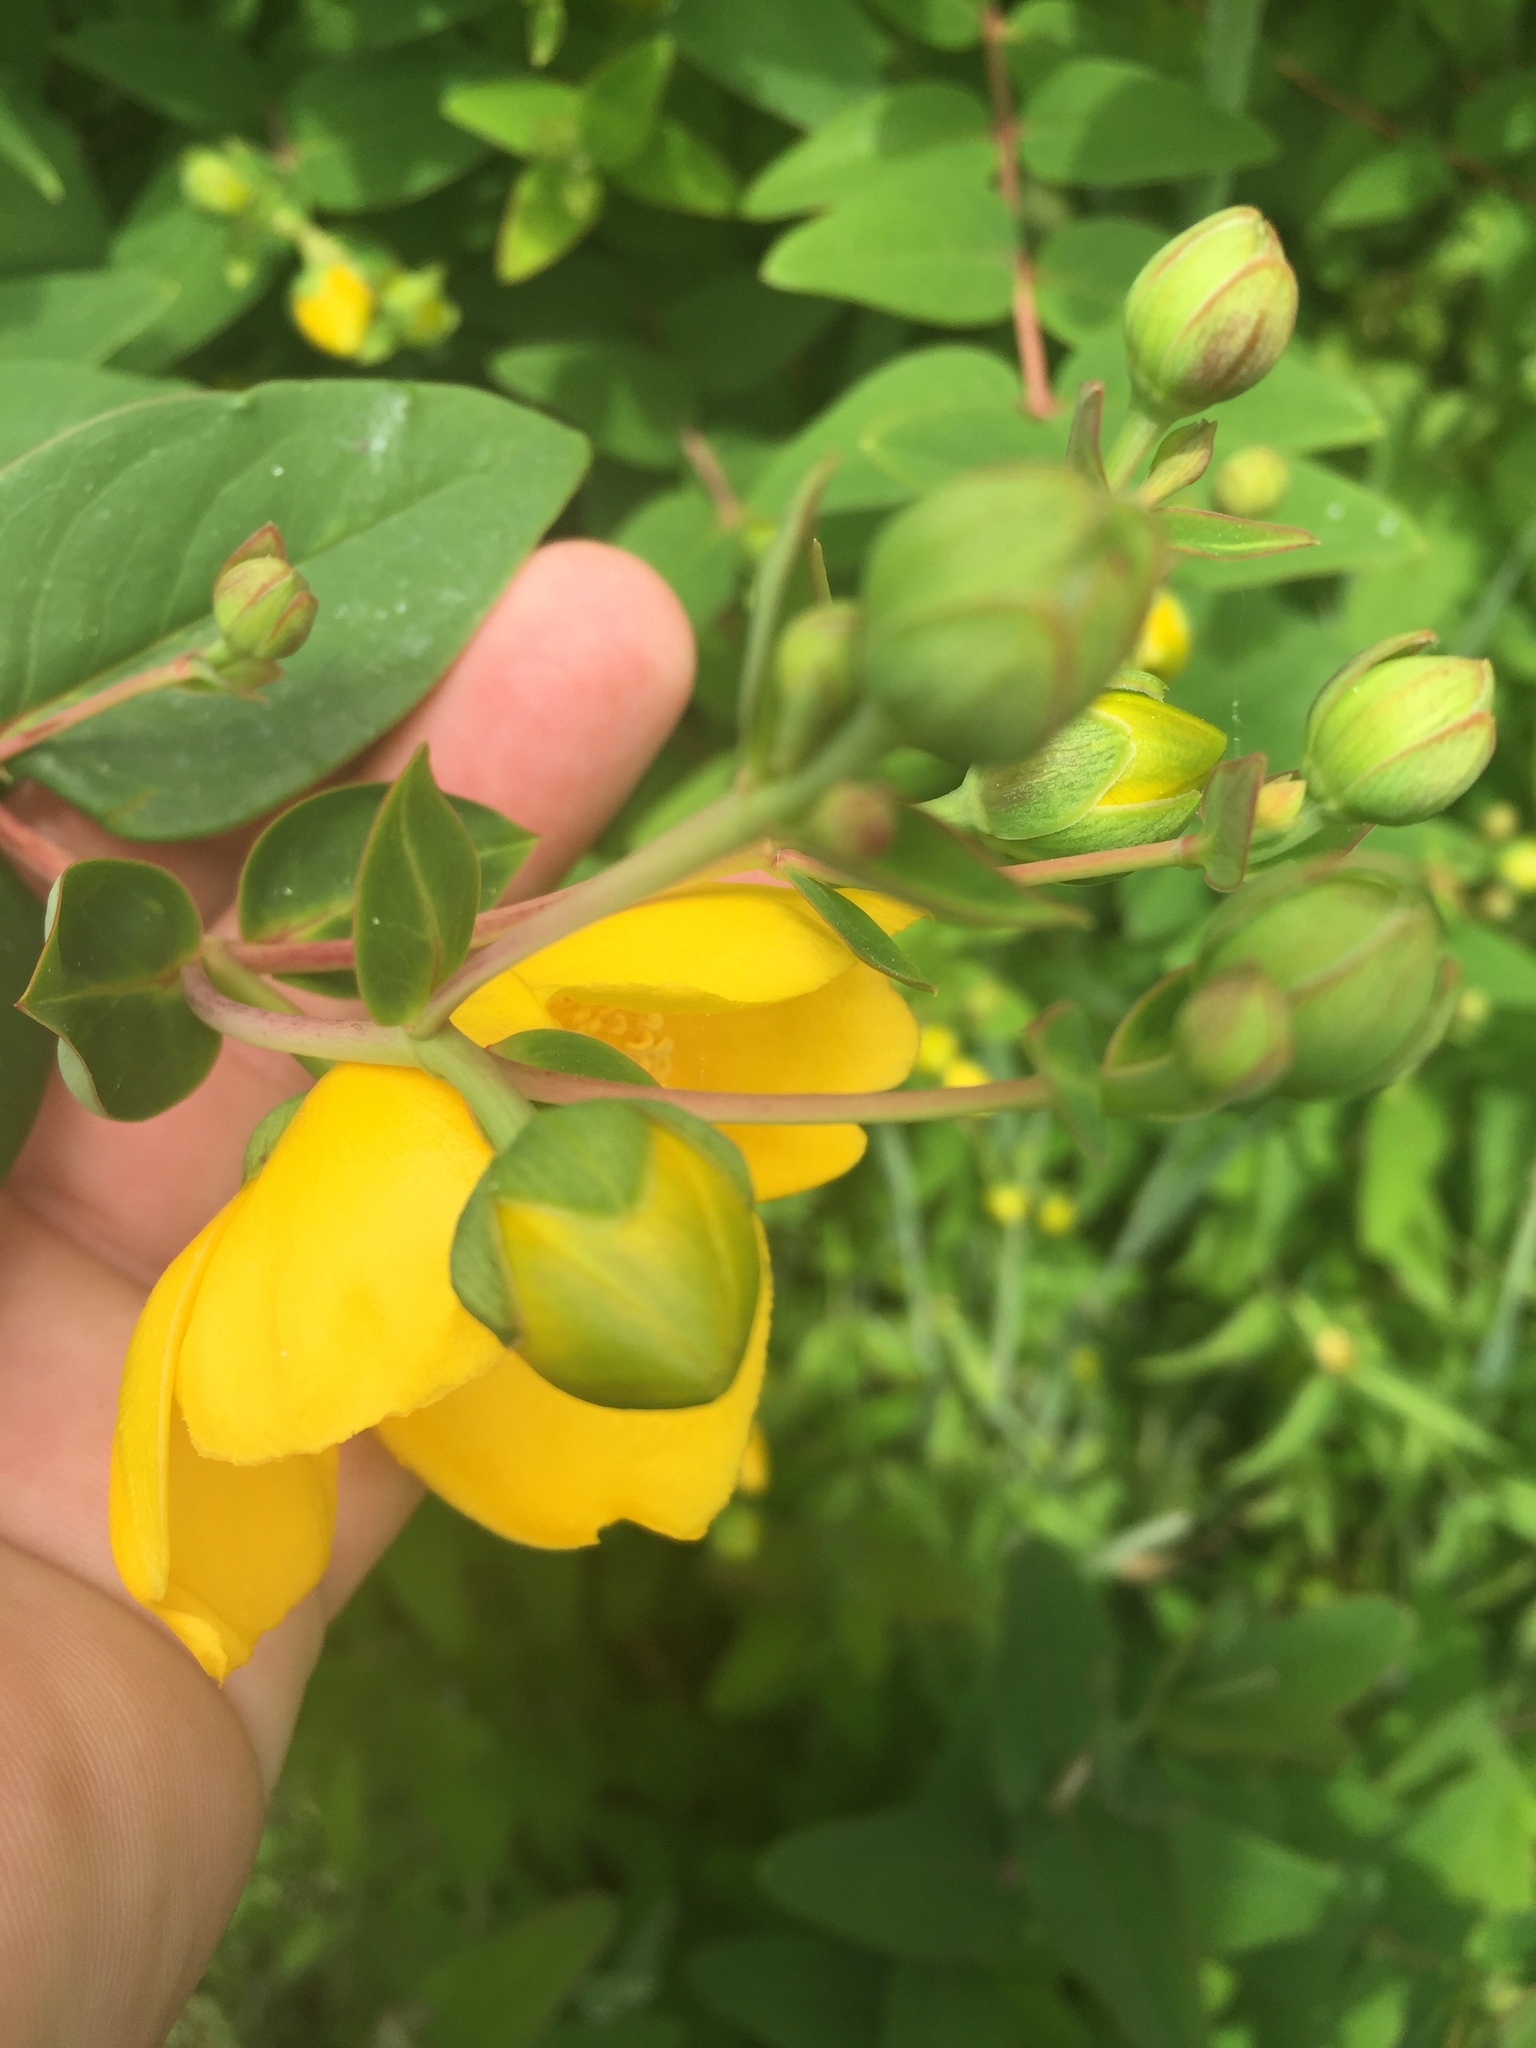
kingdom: Plantae
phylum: Tracheophyta
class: Magnoliopsida
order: Malpighiales
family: Hypericaceae
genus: Hypericum
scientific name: Hypericum calycinum
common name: Rose-of-sharon
